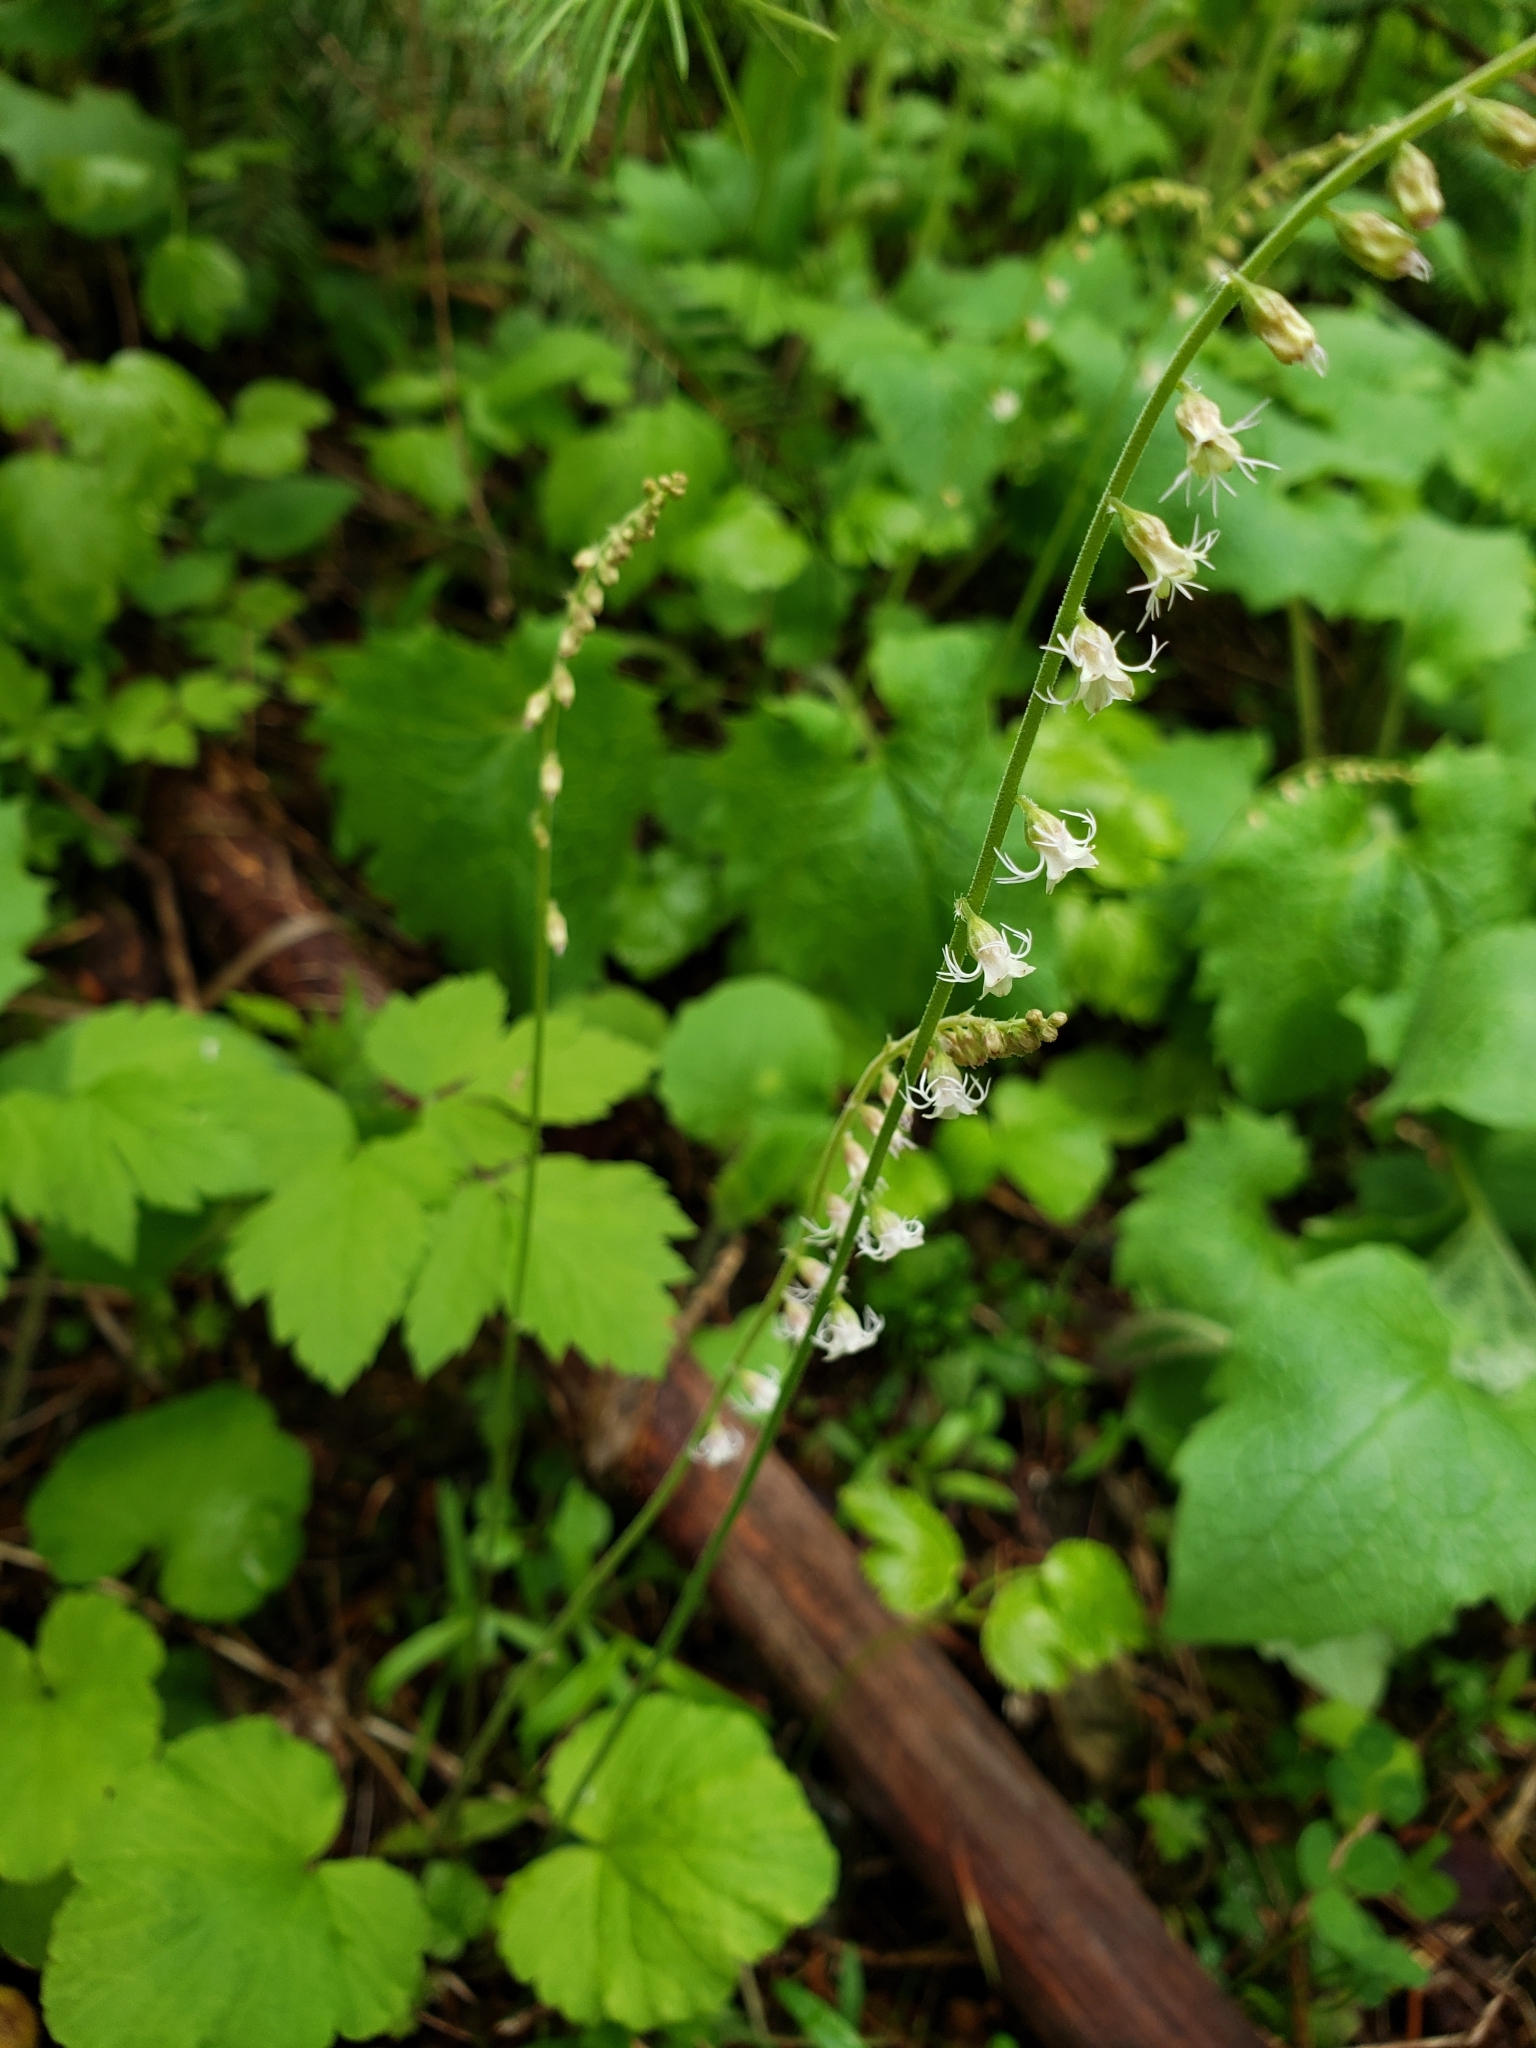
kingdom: Plantae
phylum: Tracheophyta
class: Magnoliopsida
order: Saxifragales
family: Saxifragaceae
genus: Ozomelis
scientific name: Ozomelis stauropetala
